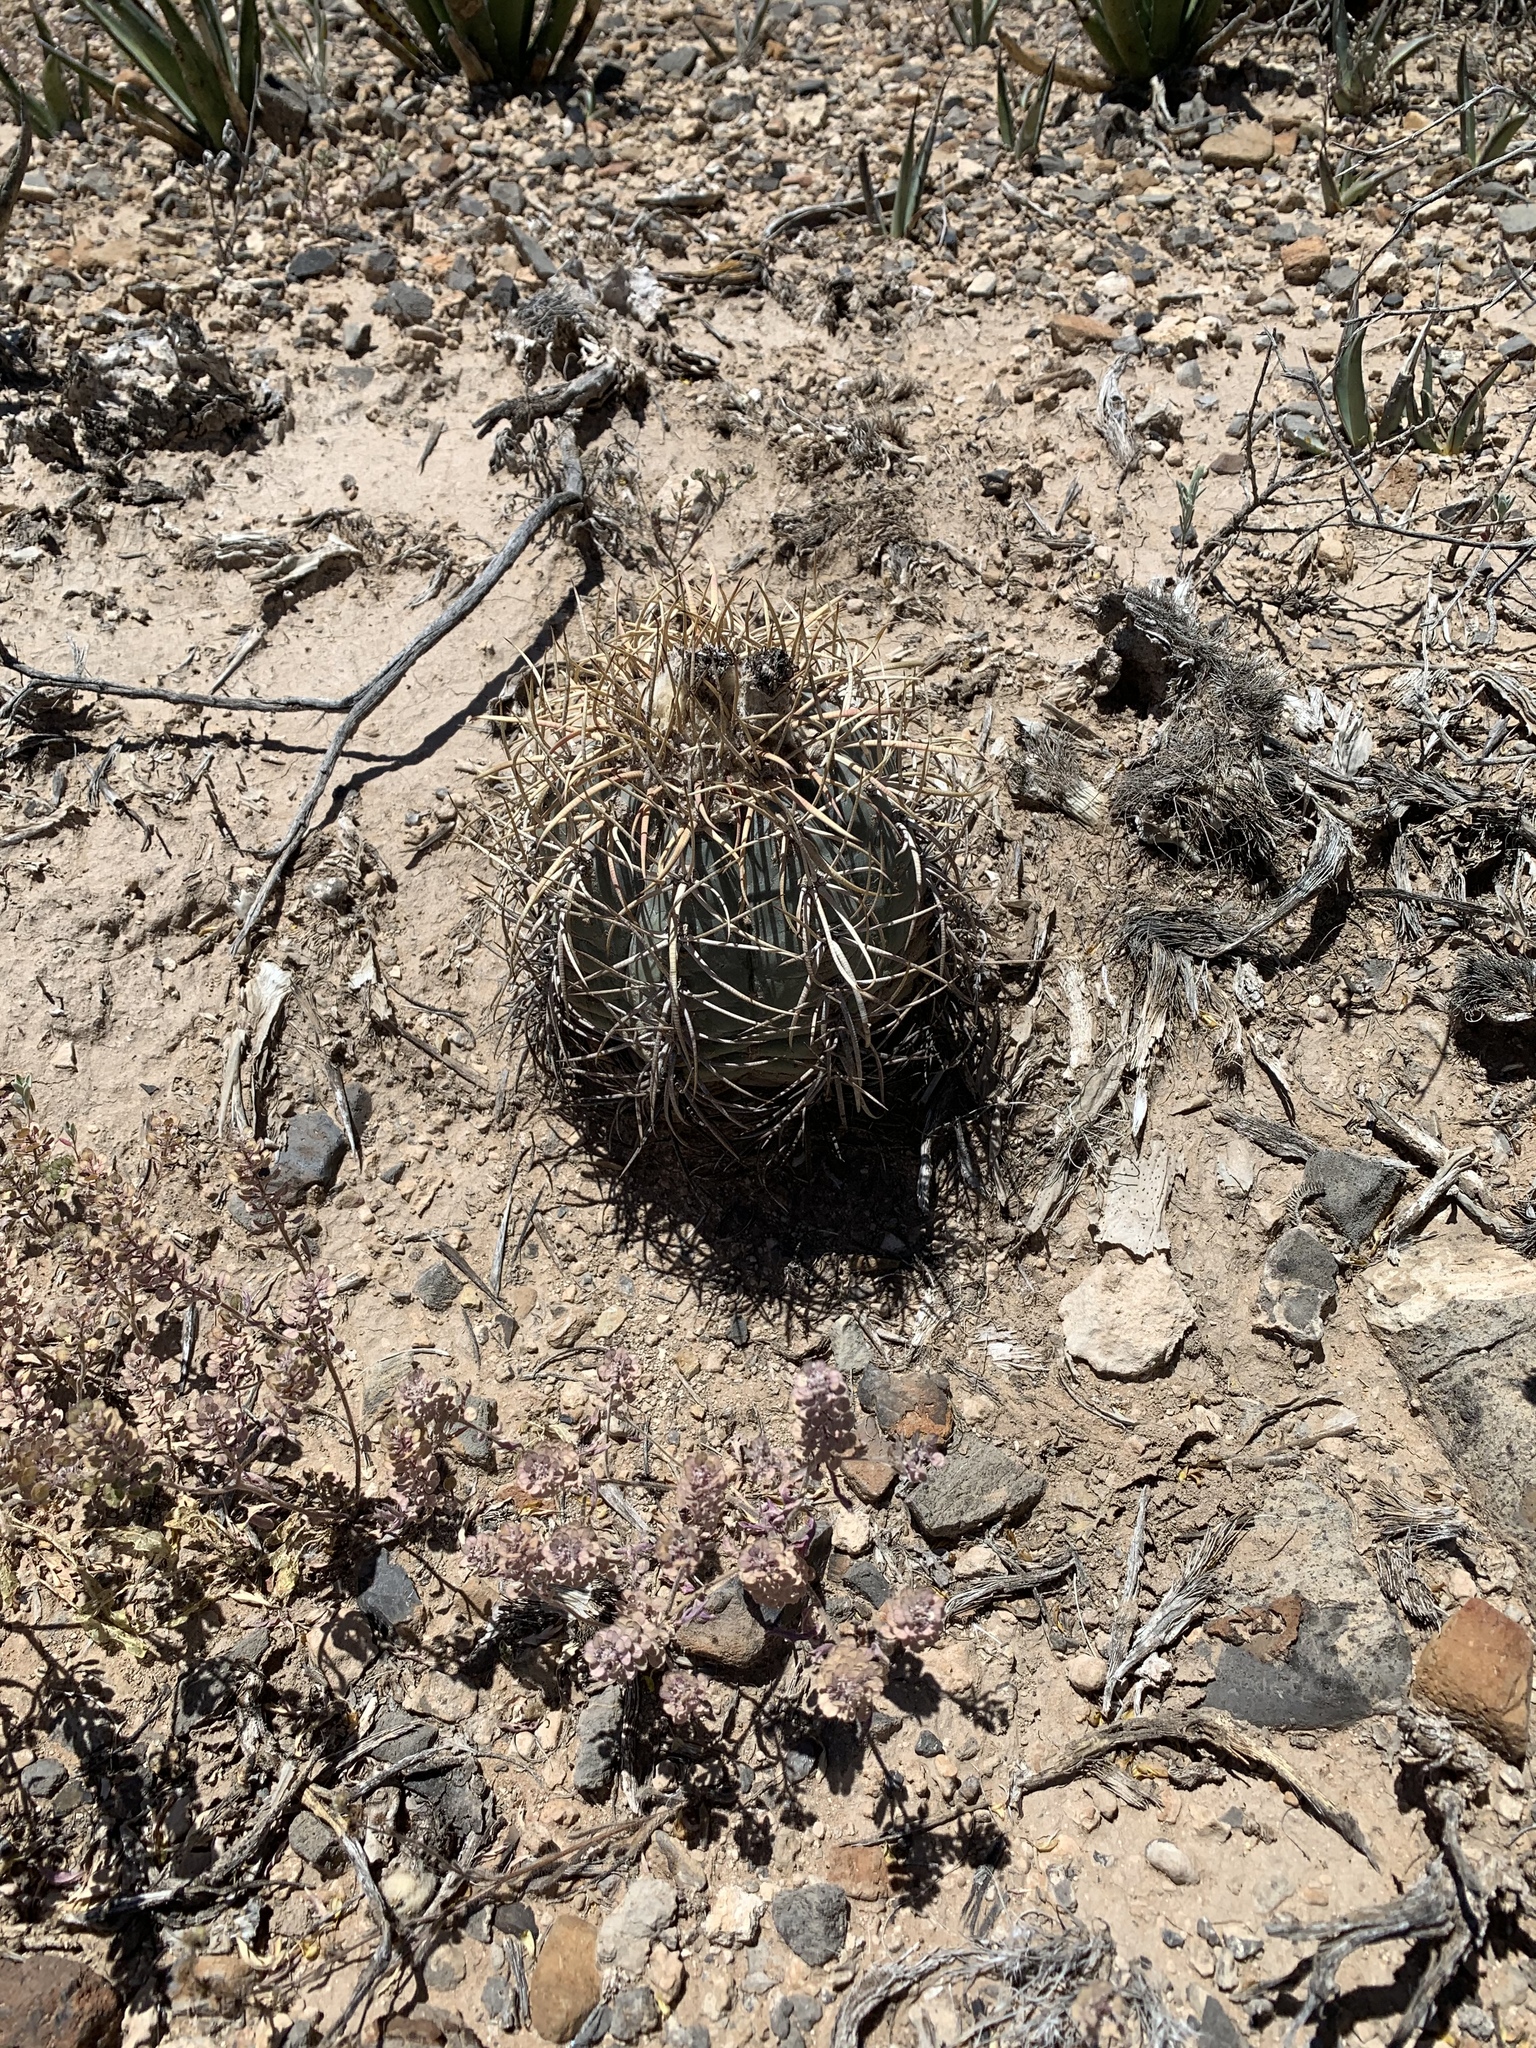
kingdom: Plantae
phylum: Tracheophyta
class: Magnoliopsida
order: Caryophyllales
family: Cactaceae
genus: Echinocactus
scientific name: Echinocactus horizonthalonius
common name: Devilshead
